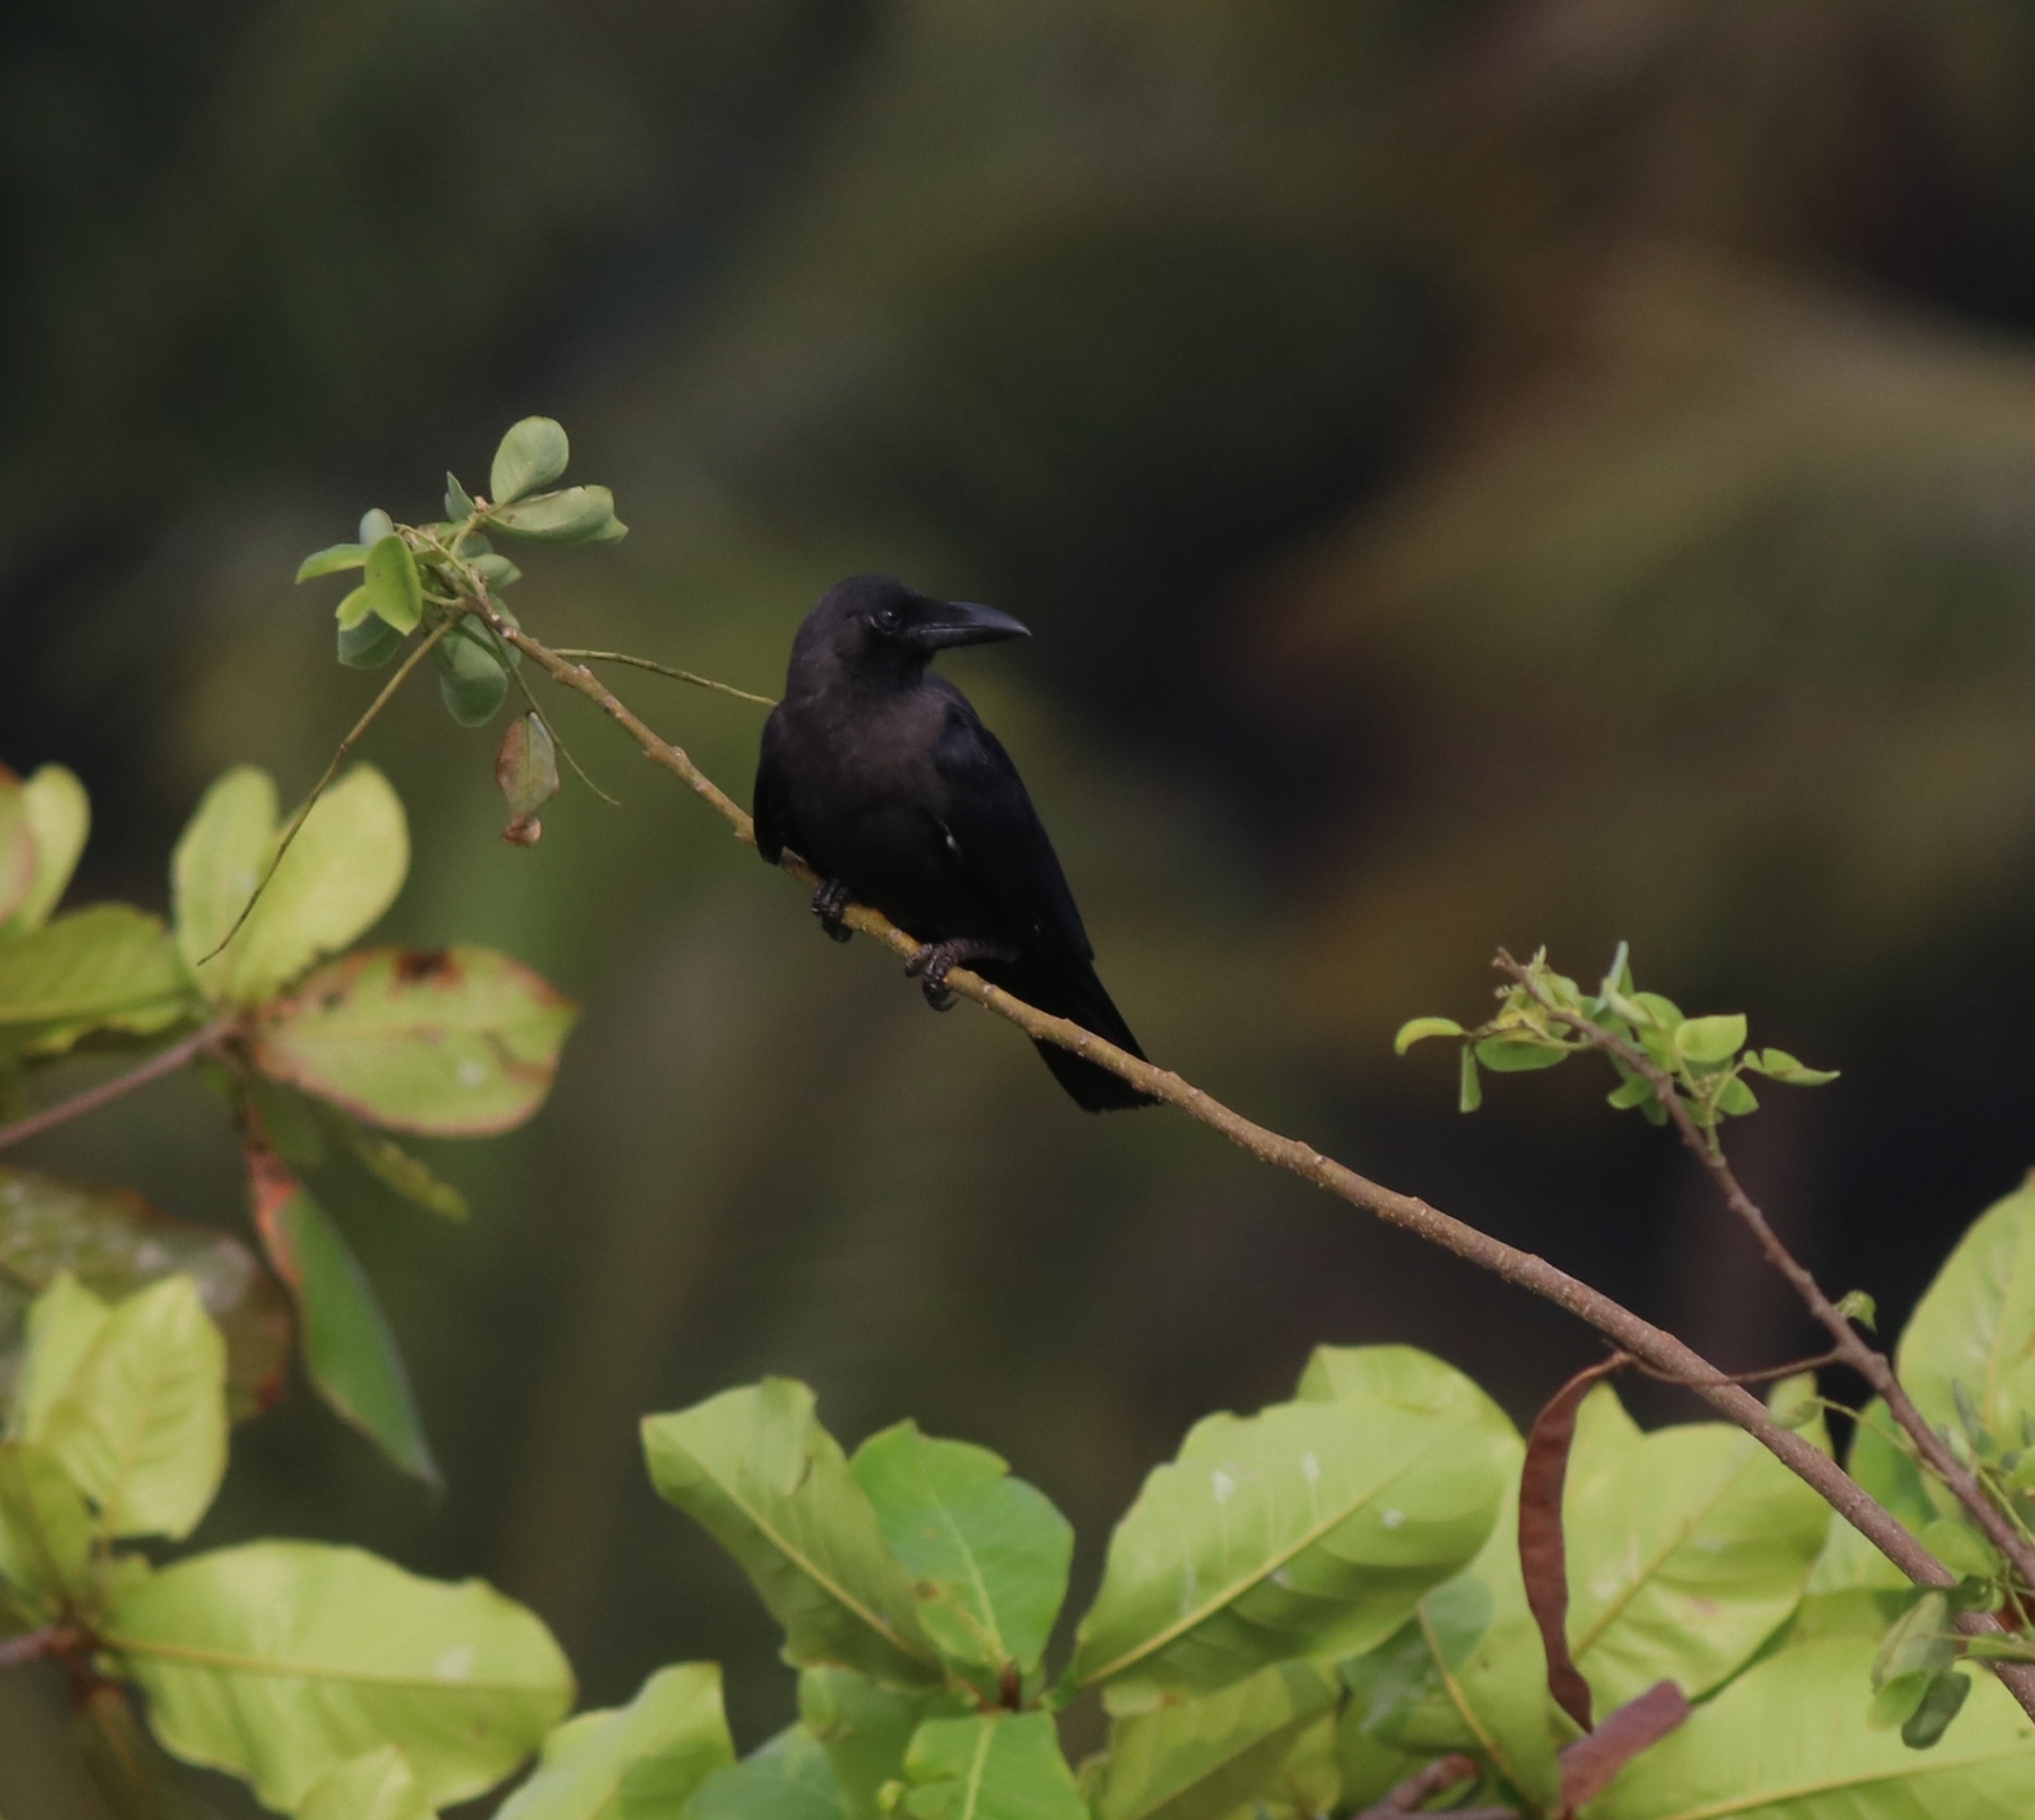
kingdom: Animalia
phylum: Chordata
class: Aves
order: Passeriformes
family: Corvidae
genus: Corvus
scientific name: Corvus splendens
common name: House crow
